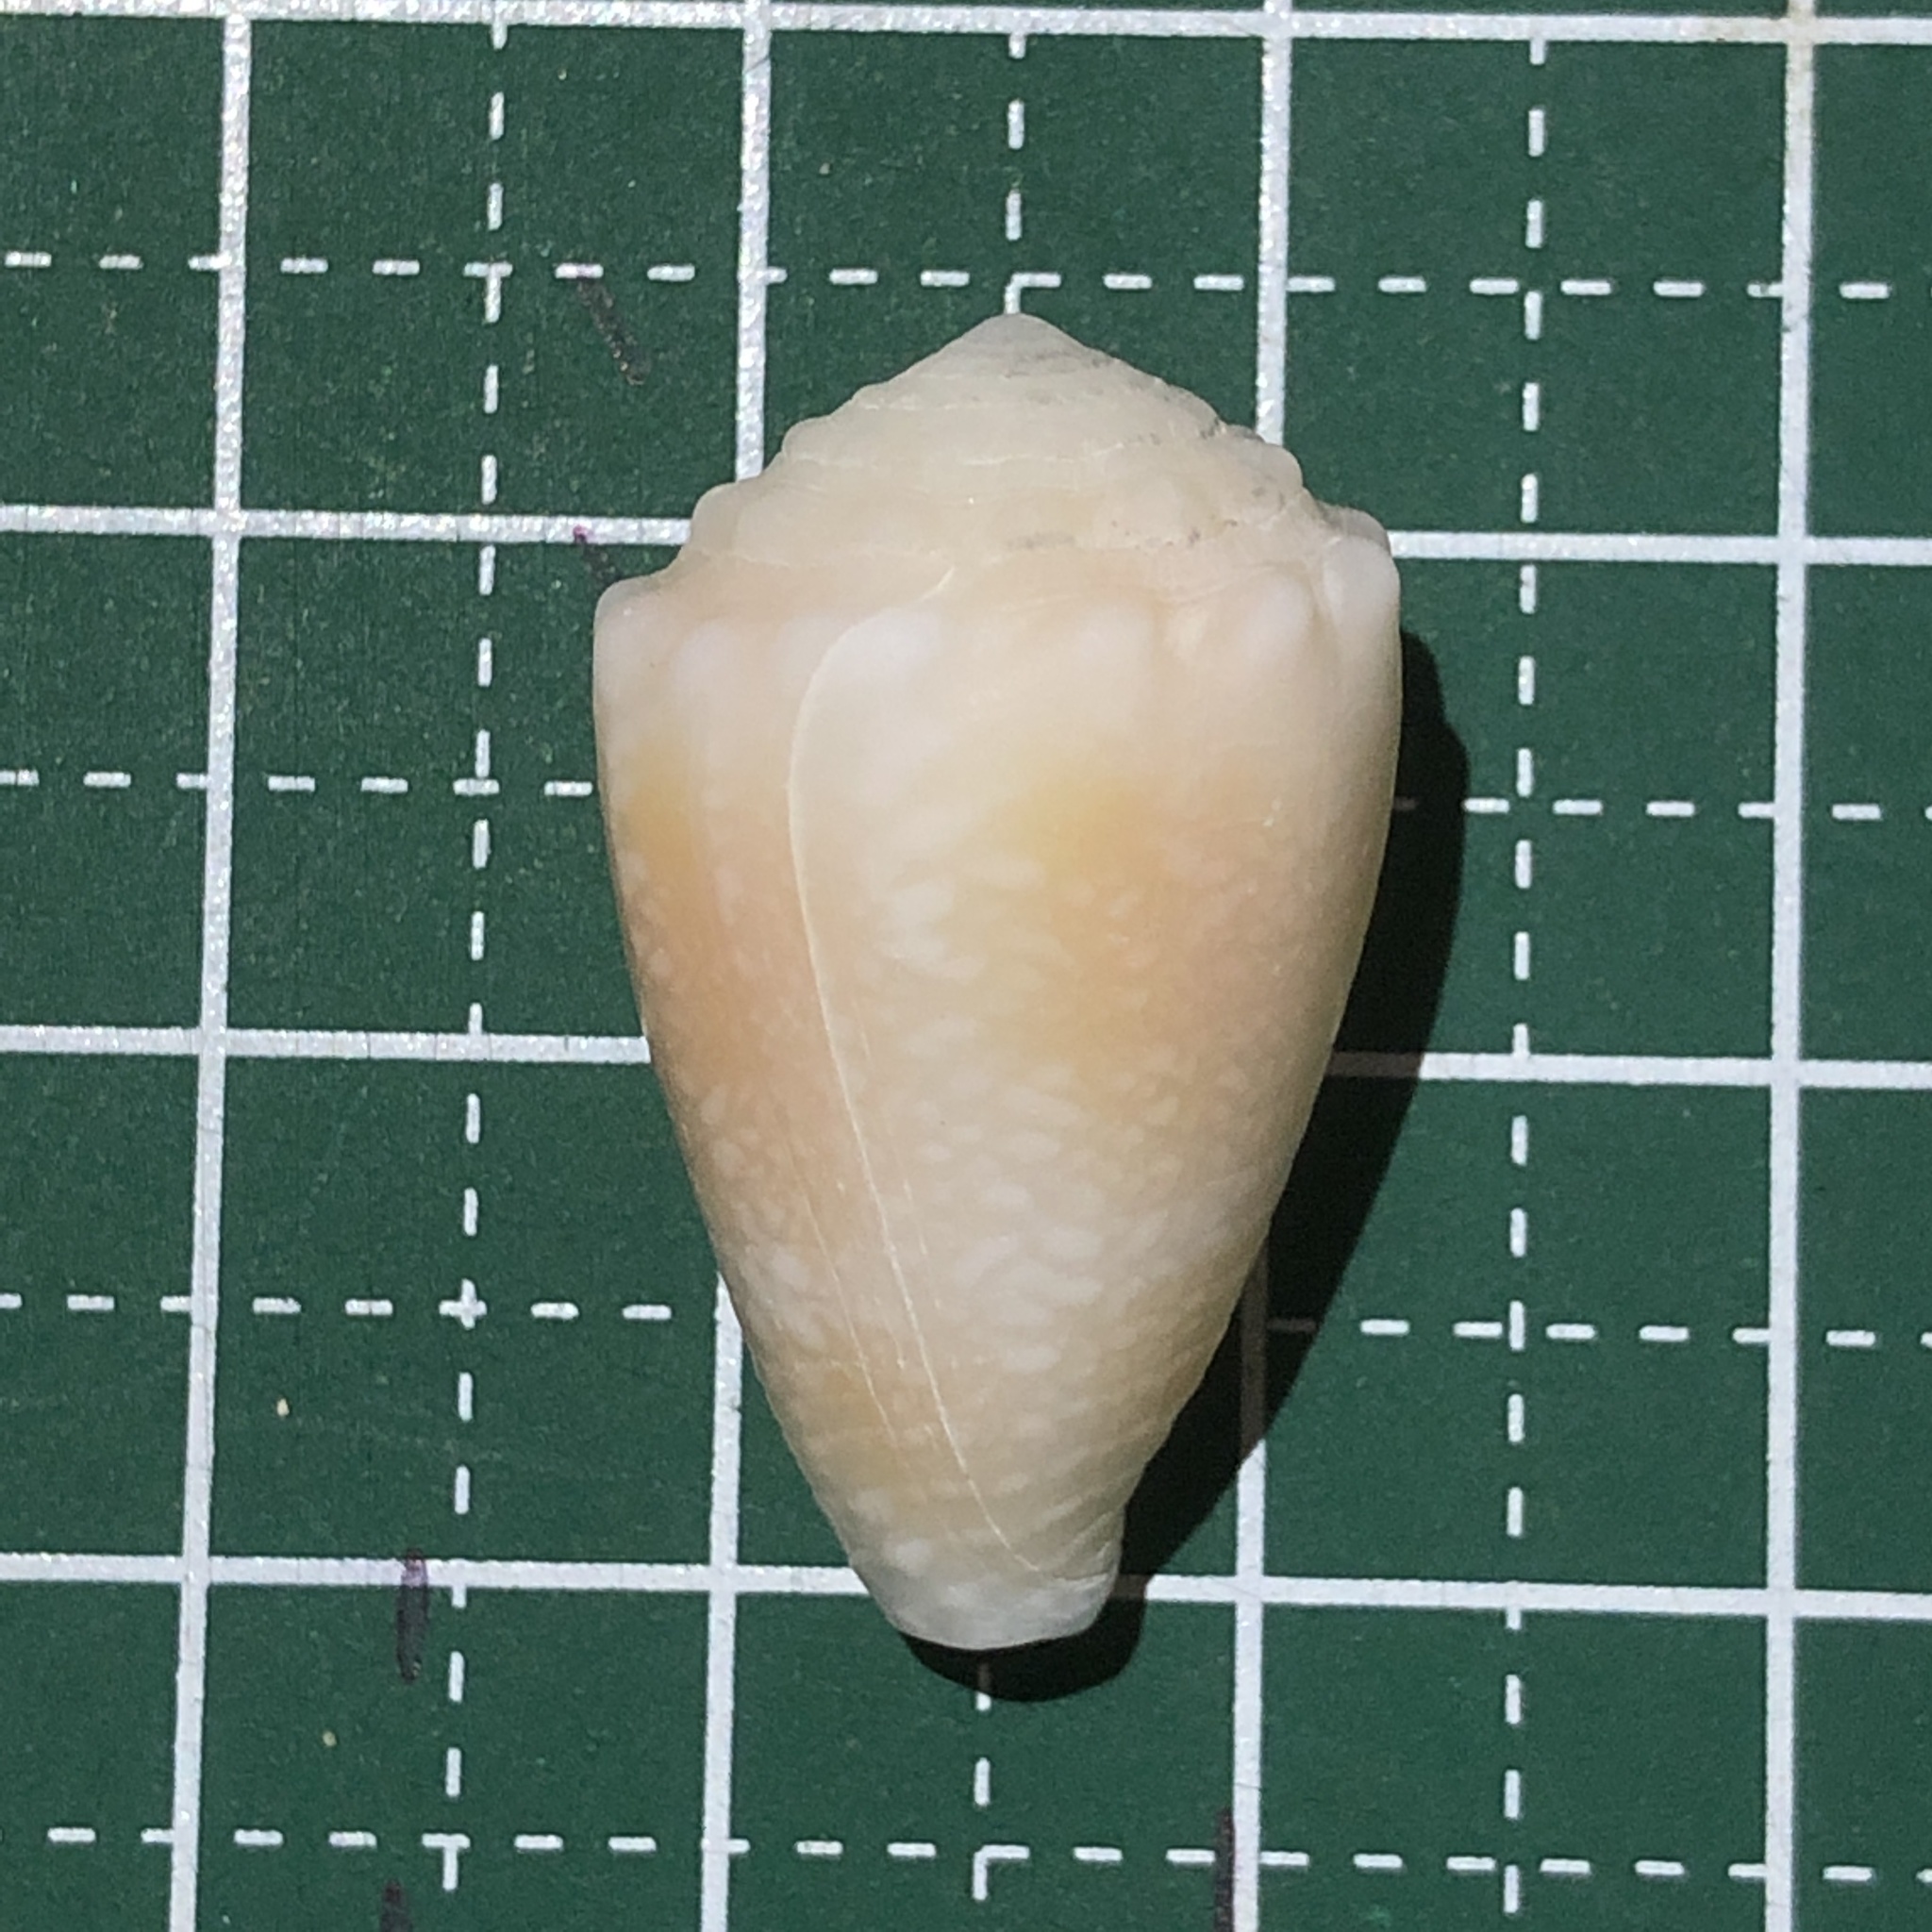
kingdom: Animalia
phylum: Mollusca
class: Gastropoda
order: Neogastropoda
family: Conidae
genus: Conus
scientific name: Conus fulgetrum
